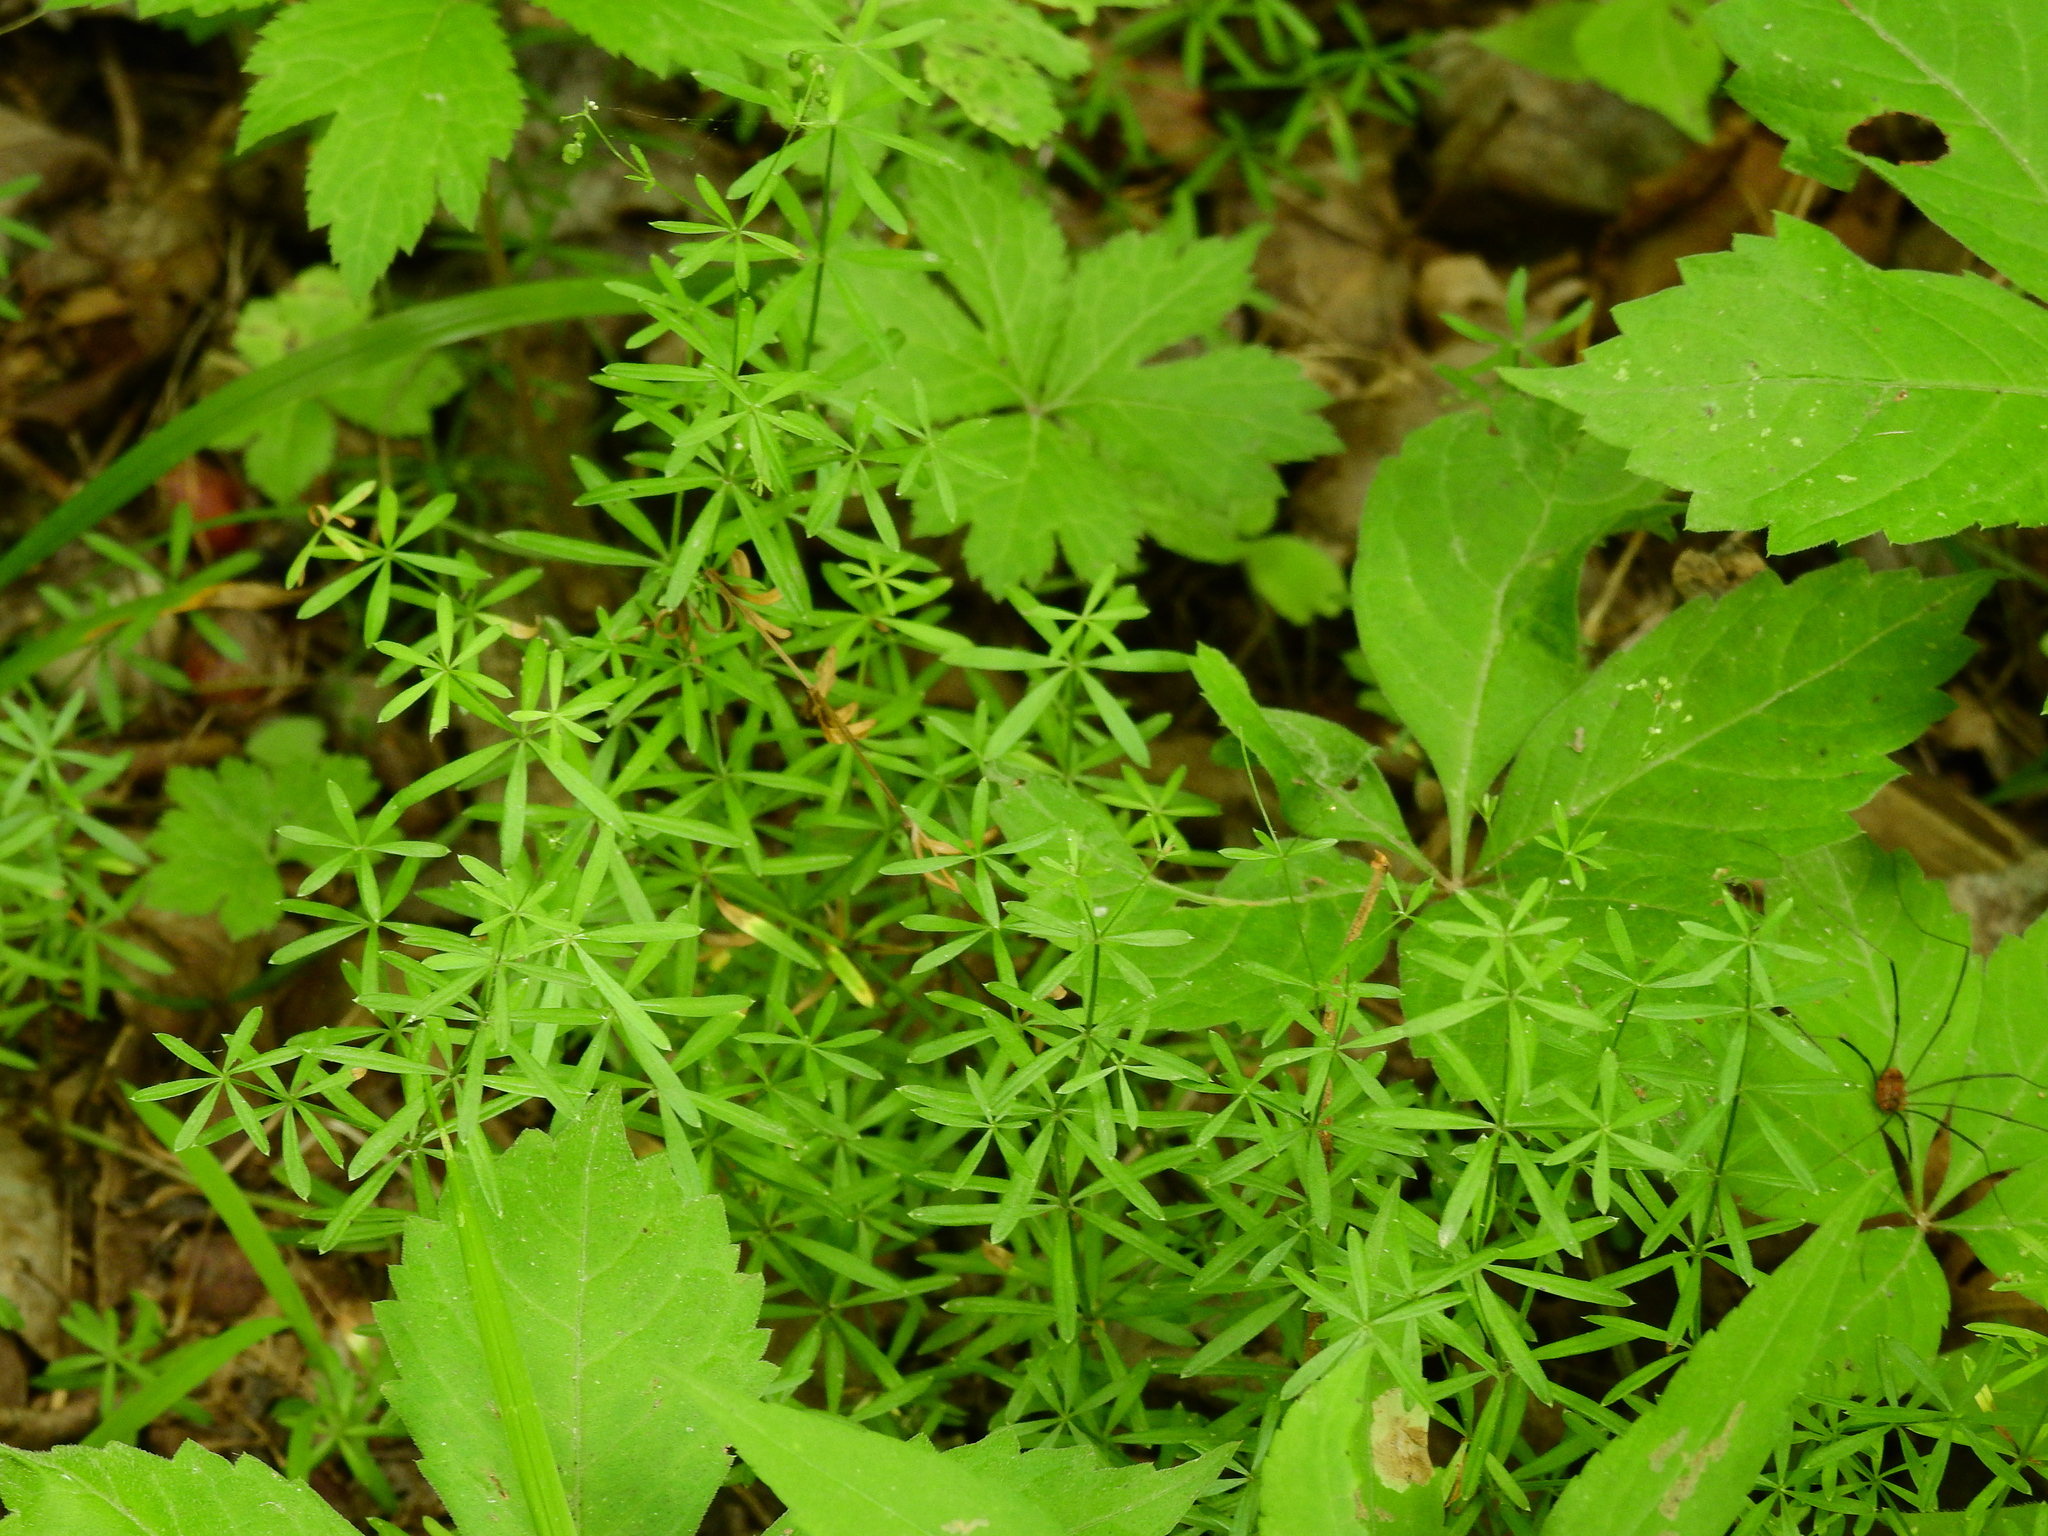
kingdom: Plantae
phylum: Tracheophyta
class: Magnoliopsida
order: Gentianales
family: Rubiaceae
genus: Galium
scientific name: Galium concinnum
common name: Shining bedstraw
